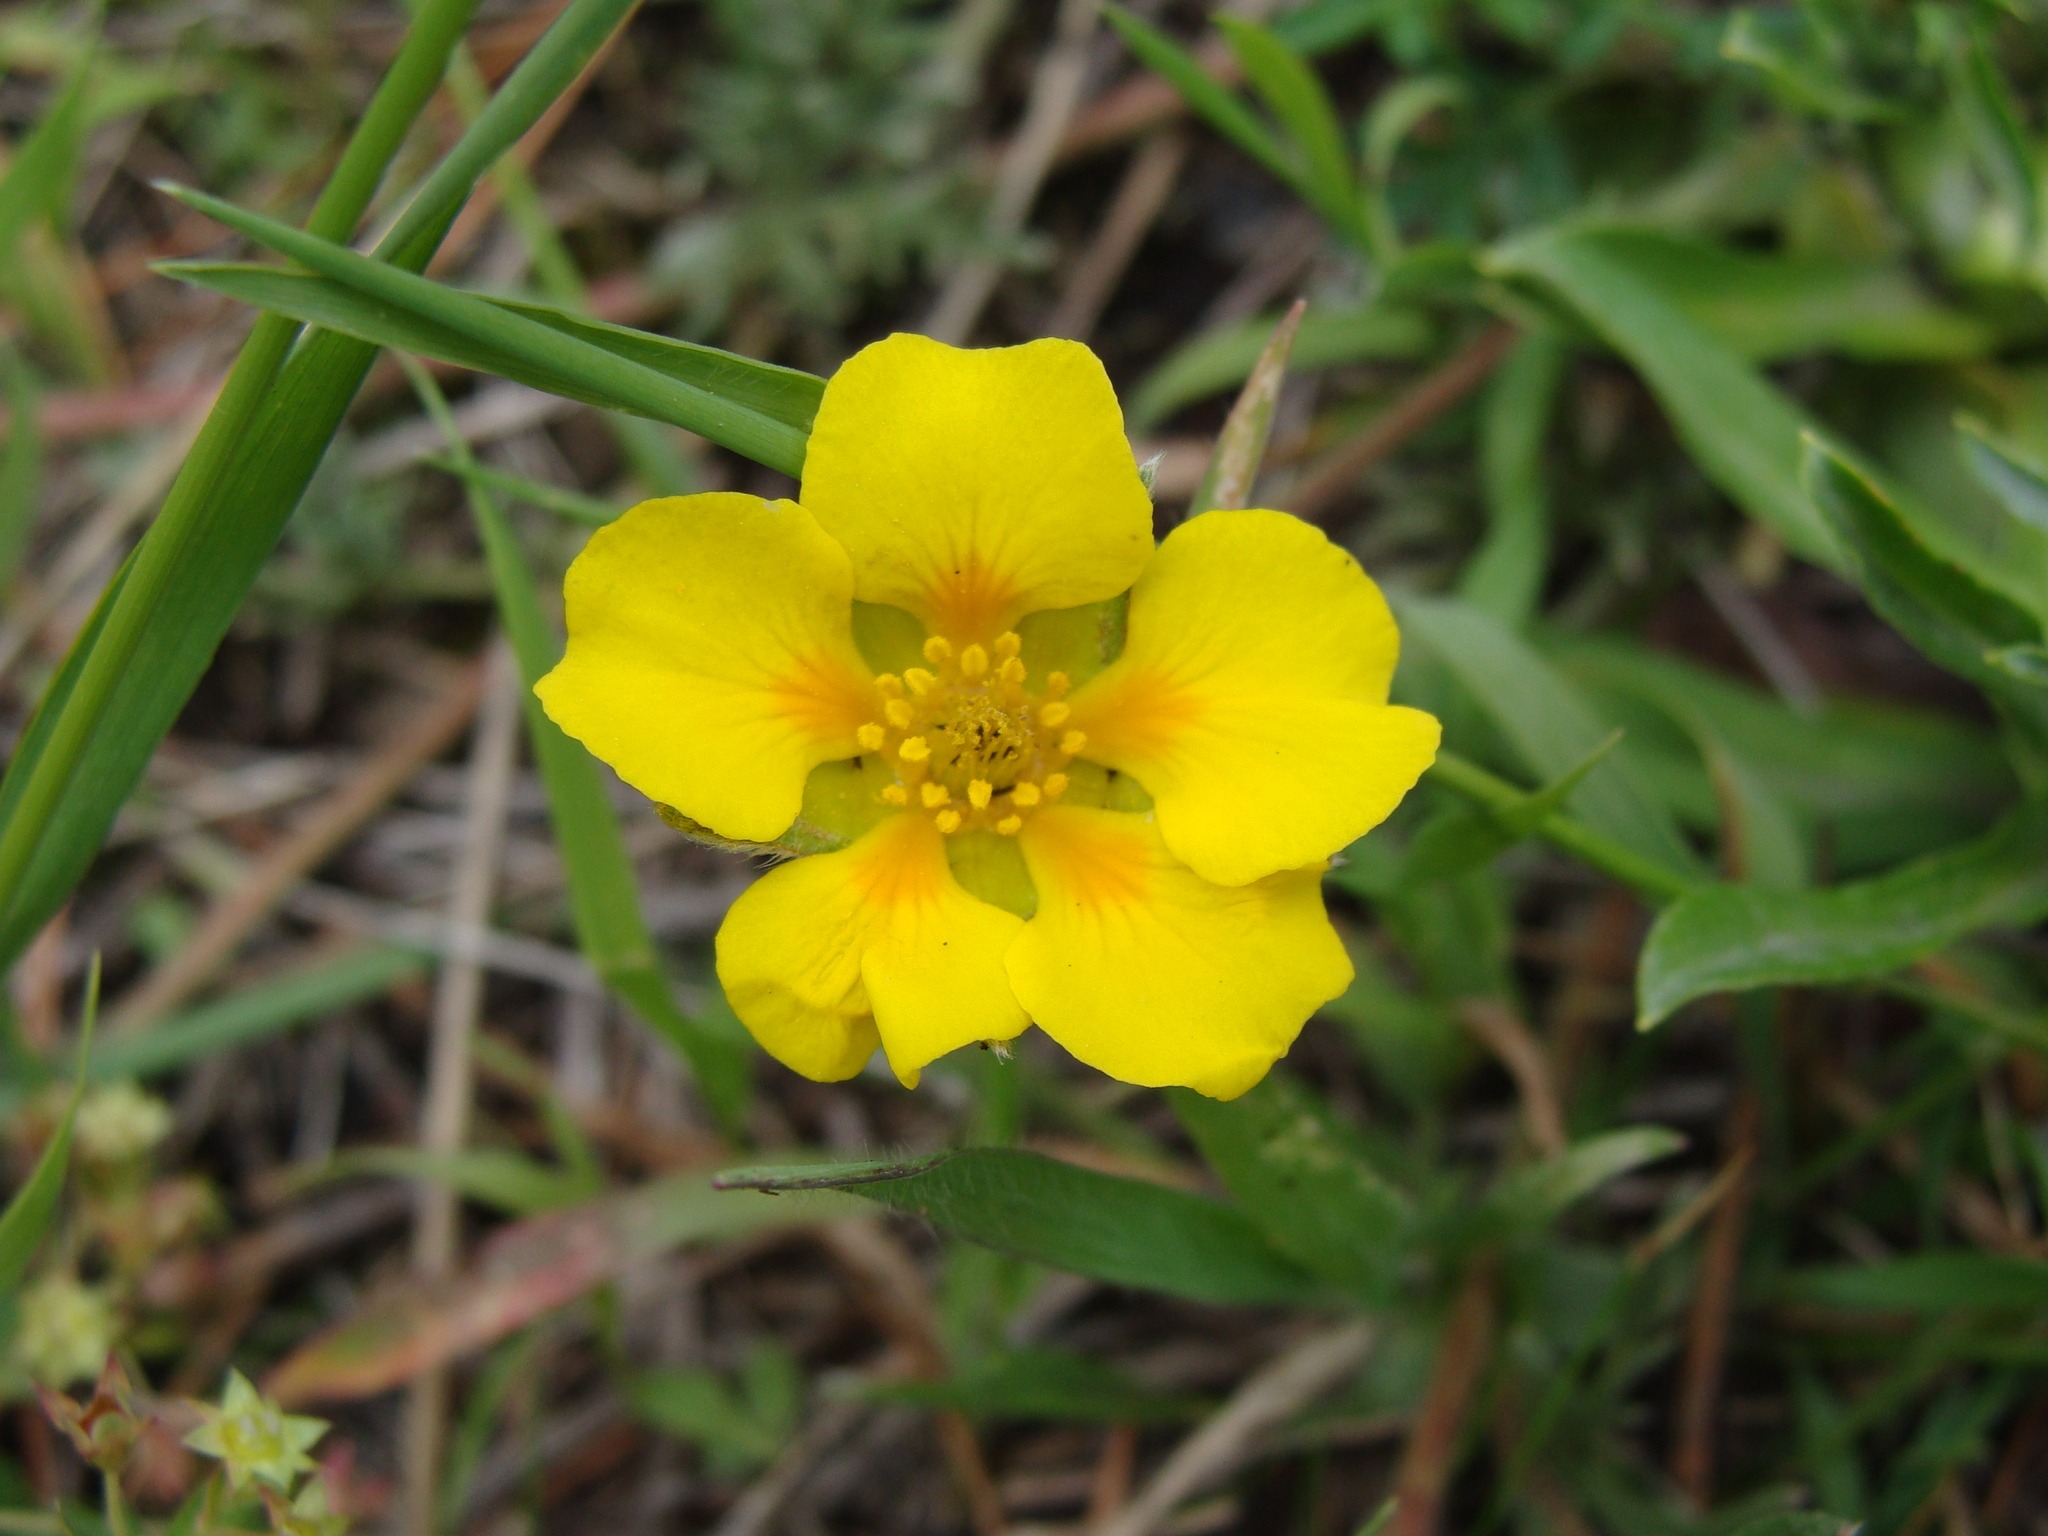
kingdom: Plantae
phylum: Tracheophyta
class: Magnoliopsida
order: Rosales
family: Rosaceae
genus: Potentilla
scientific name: Potentilla candicans
